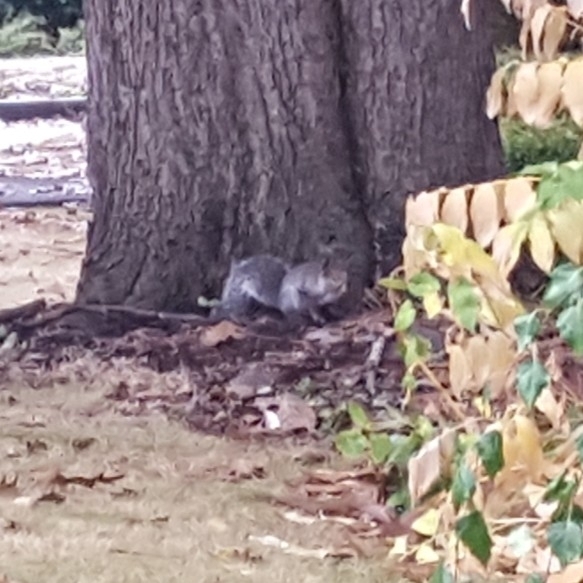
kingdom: Animalia
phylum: Chordata
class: Mammalia
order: Rodentia
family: Sciuridae
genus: Sciurus
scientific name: Sciurus carolinensis
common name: Eastern gray squirrel
